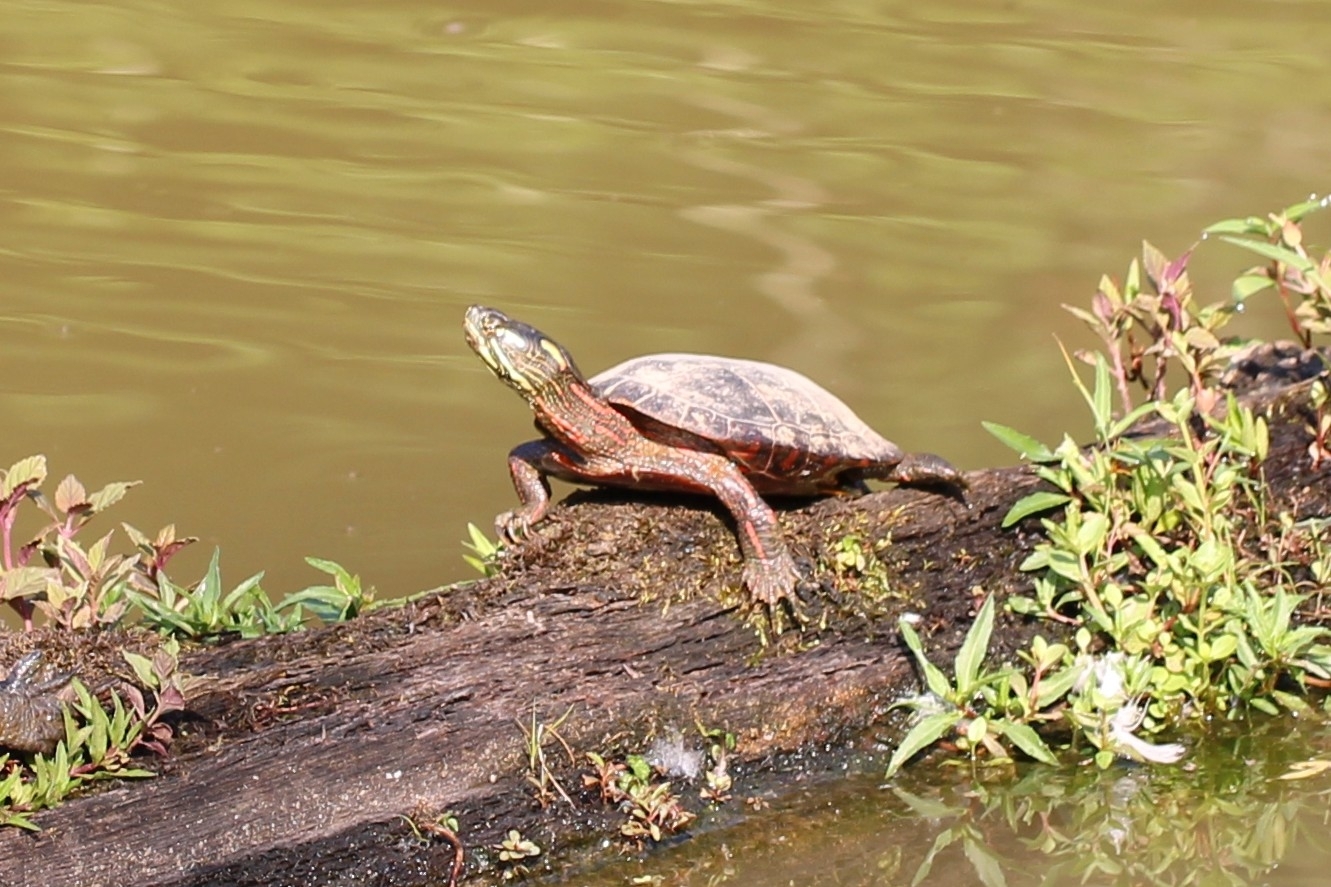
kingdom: Animalia
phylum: Chordata
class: Testudines
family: Emydidae
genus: Chrysemys
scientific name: Chrysemys picta
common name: Painted turtle
